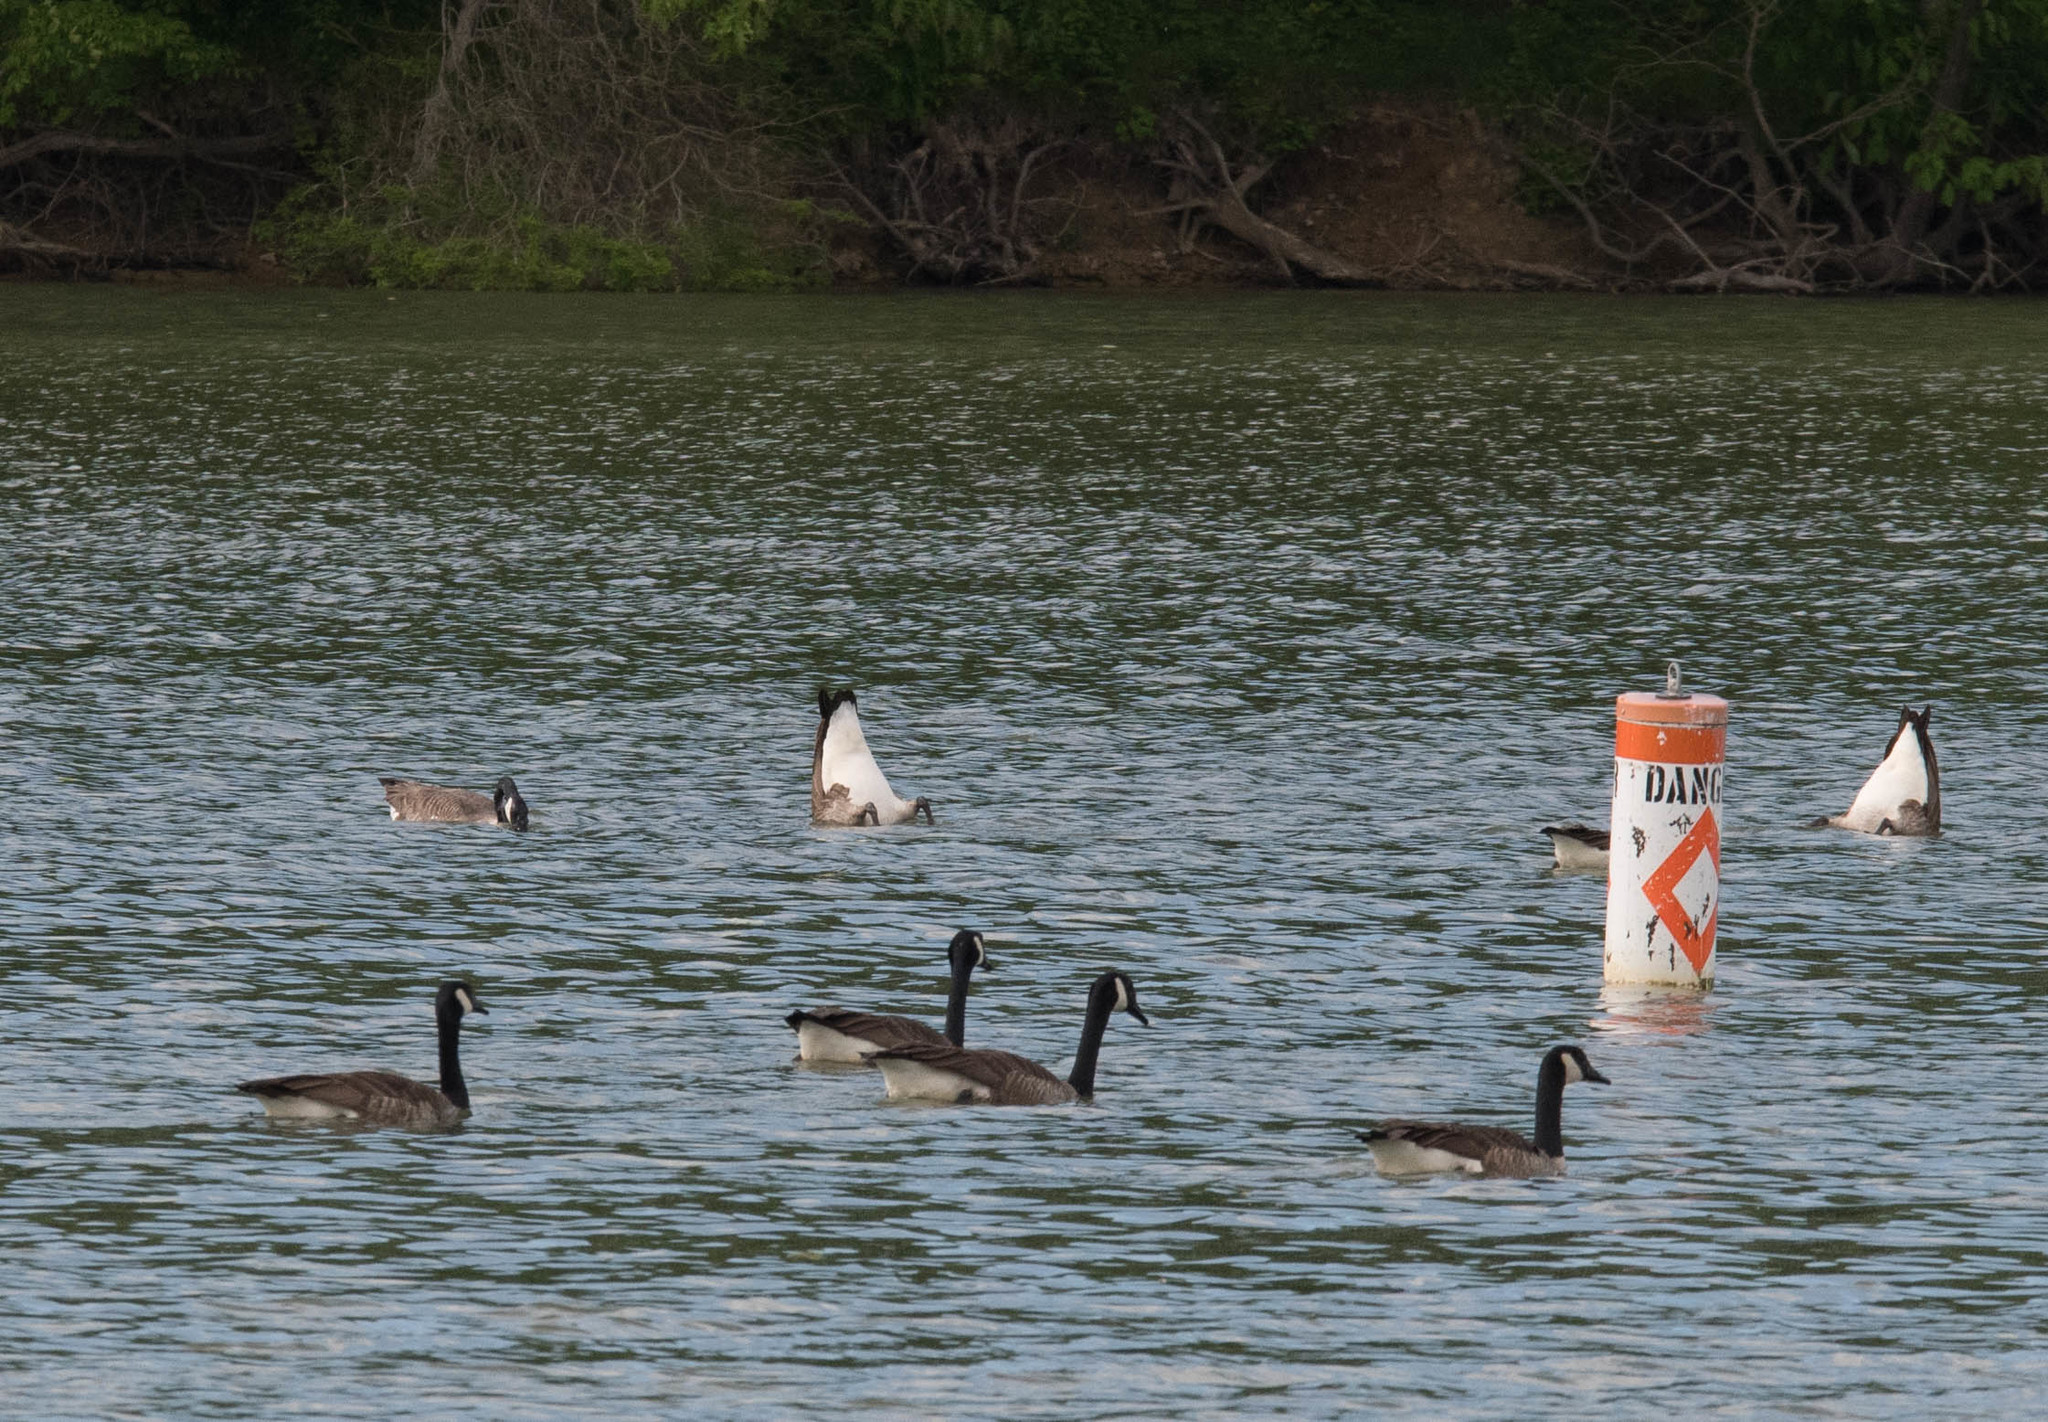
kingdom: Animalia
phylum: Chordata
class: Aves
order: Anseriformes
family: Anatidae
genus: Branta
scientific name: Branta canadensis
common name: Canada goose
